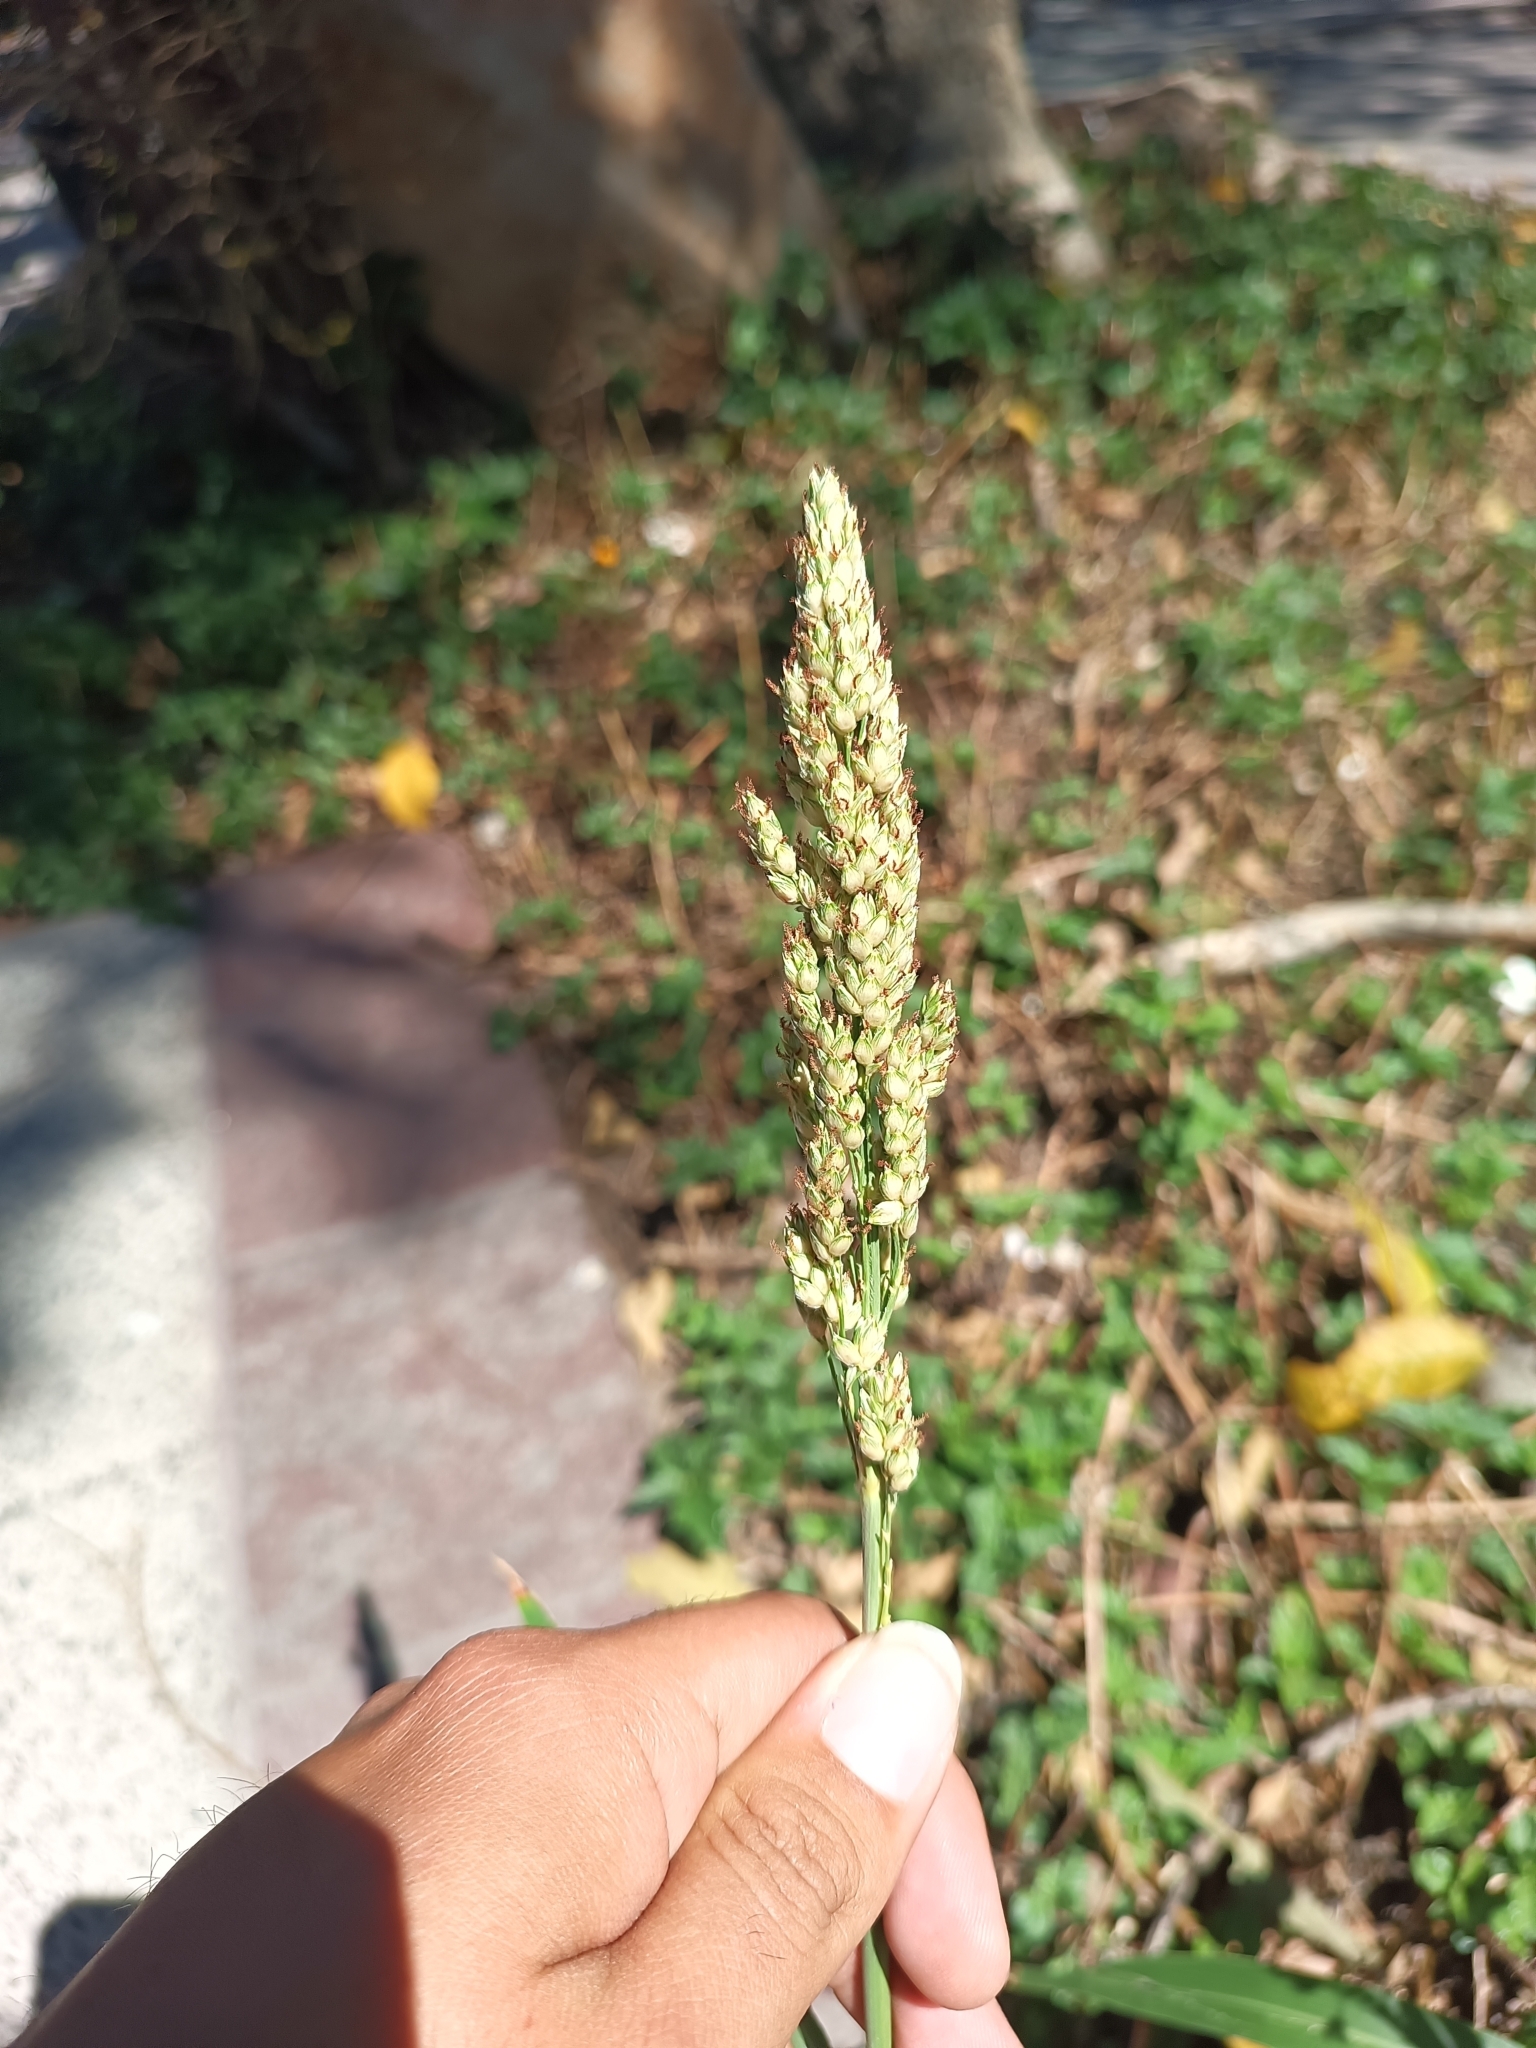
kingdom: Plantae
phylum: Tracheophyta
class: Liliopsida
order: Poales
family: Poaceae
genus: Echinochloa
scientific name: Echinochloa crus-galli
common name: Cockspur
